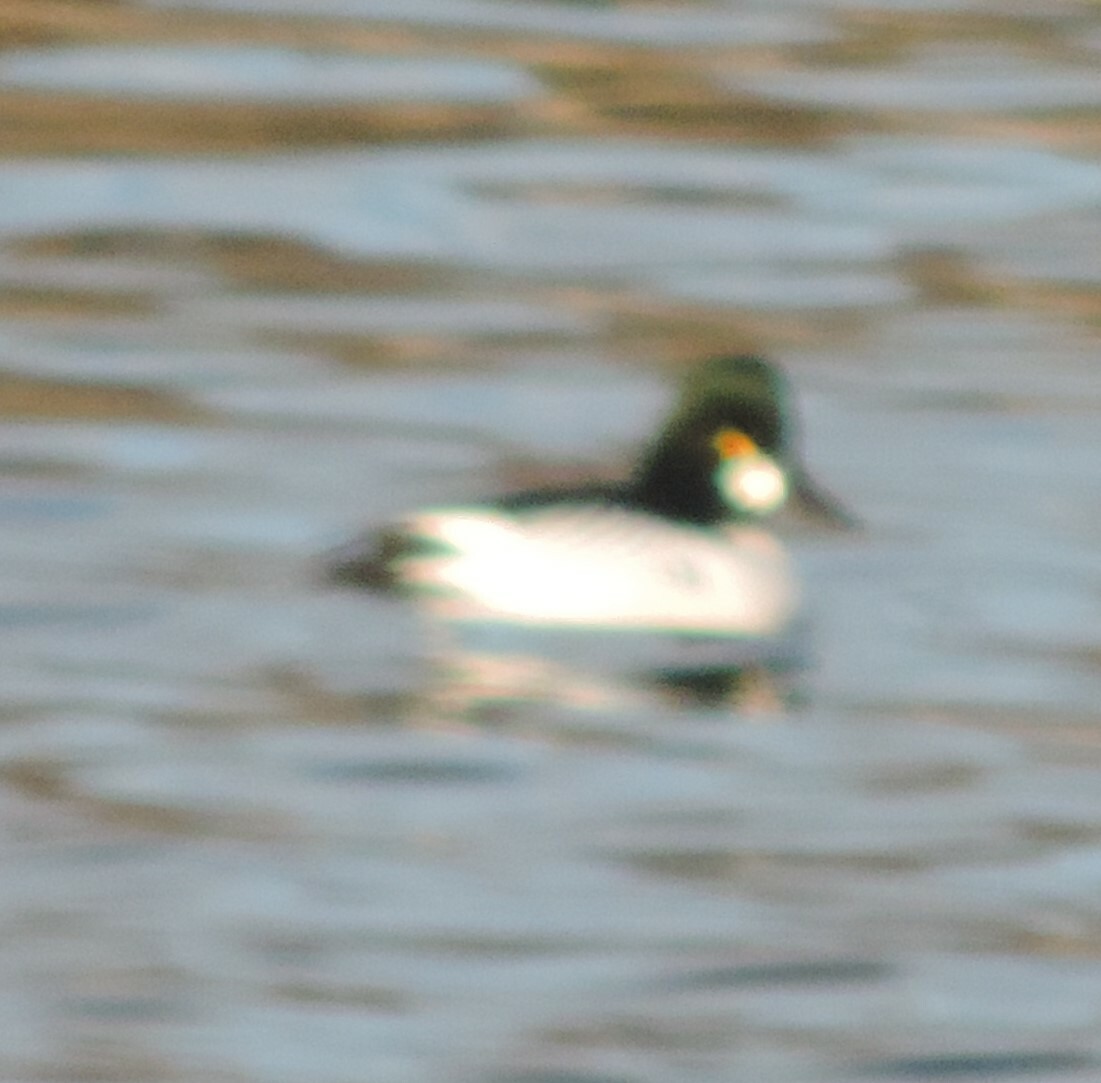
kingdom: Animalia
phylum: Chordata
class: Aves
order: Anseriformes
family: Anatidae
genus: Bucephala
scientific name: Bucephala clangula
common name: Common goldeneye
